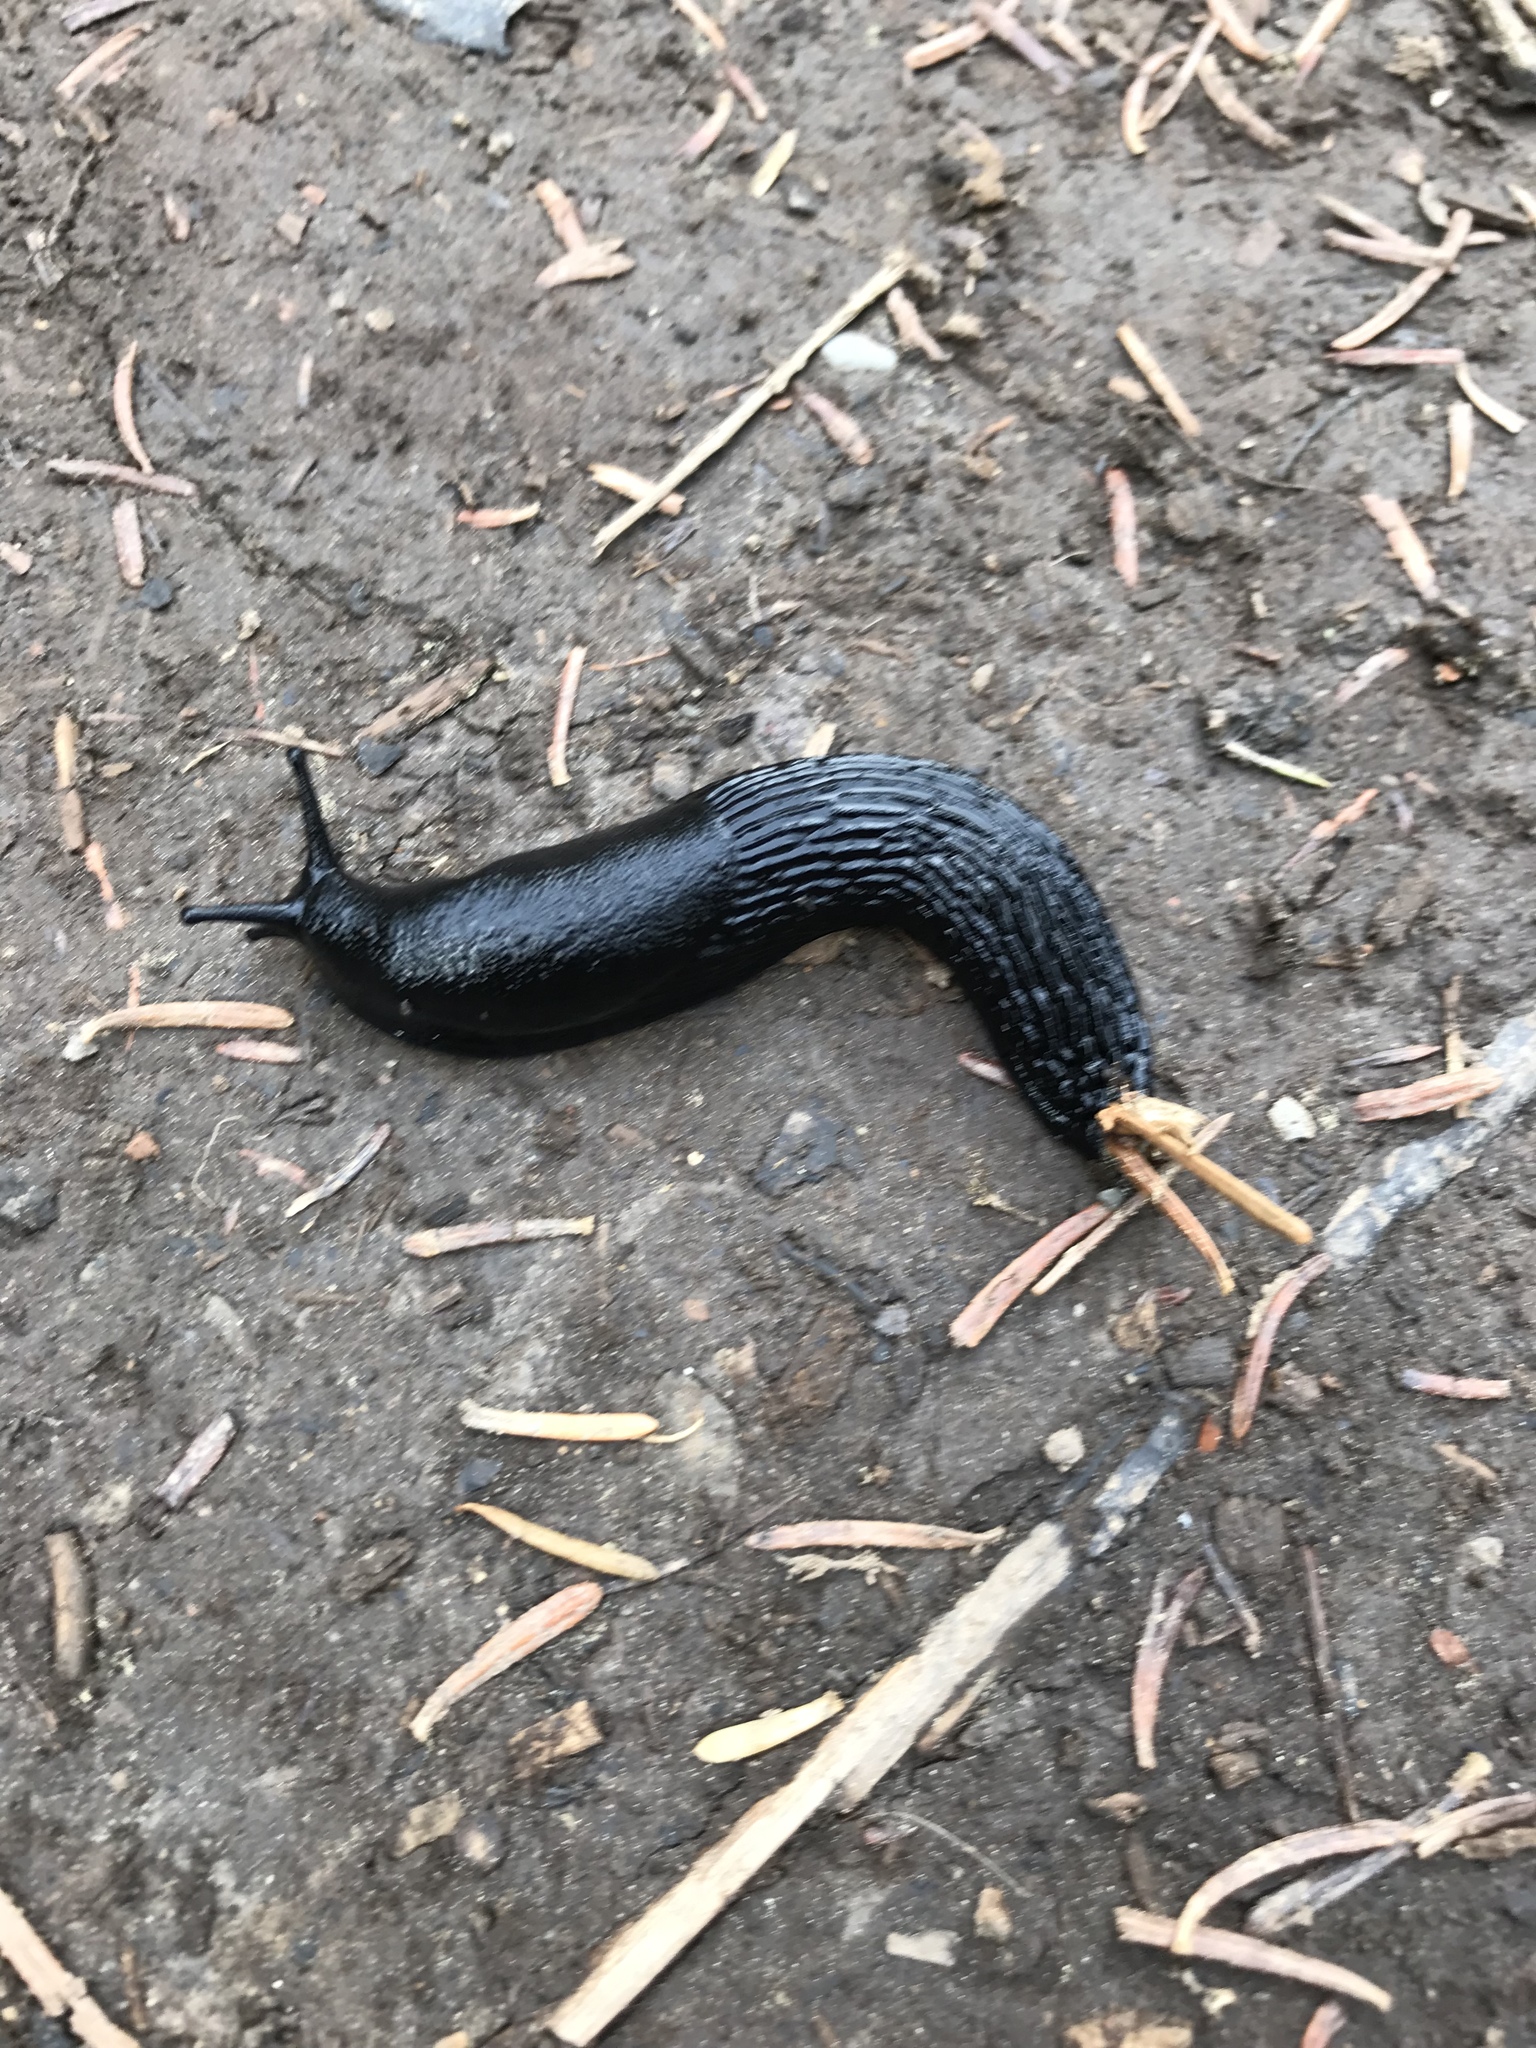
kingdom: Animalia
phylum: Mollusca
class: Gastropoda
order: Stylommatophora
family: Arionidae
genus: Arion
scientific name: Arion
